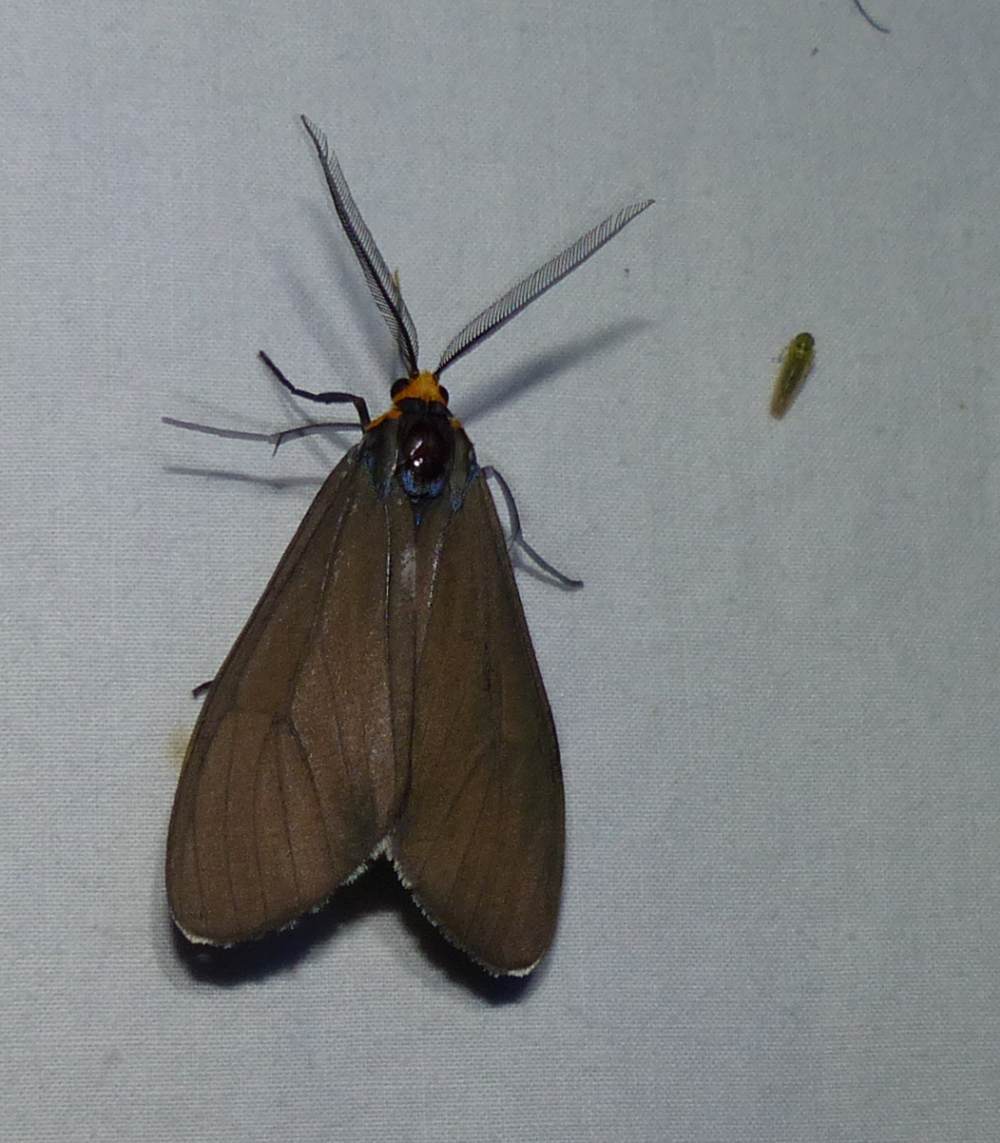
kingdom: Animalia
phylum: Arthropoda
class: Insecta
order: Lepidoptera
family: Erebidae
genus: Ctenucha
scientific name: Ctenucha virginica
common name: Virginia ctenucha moth
